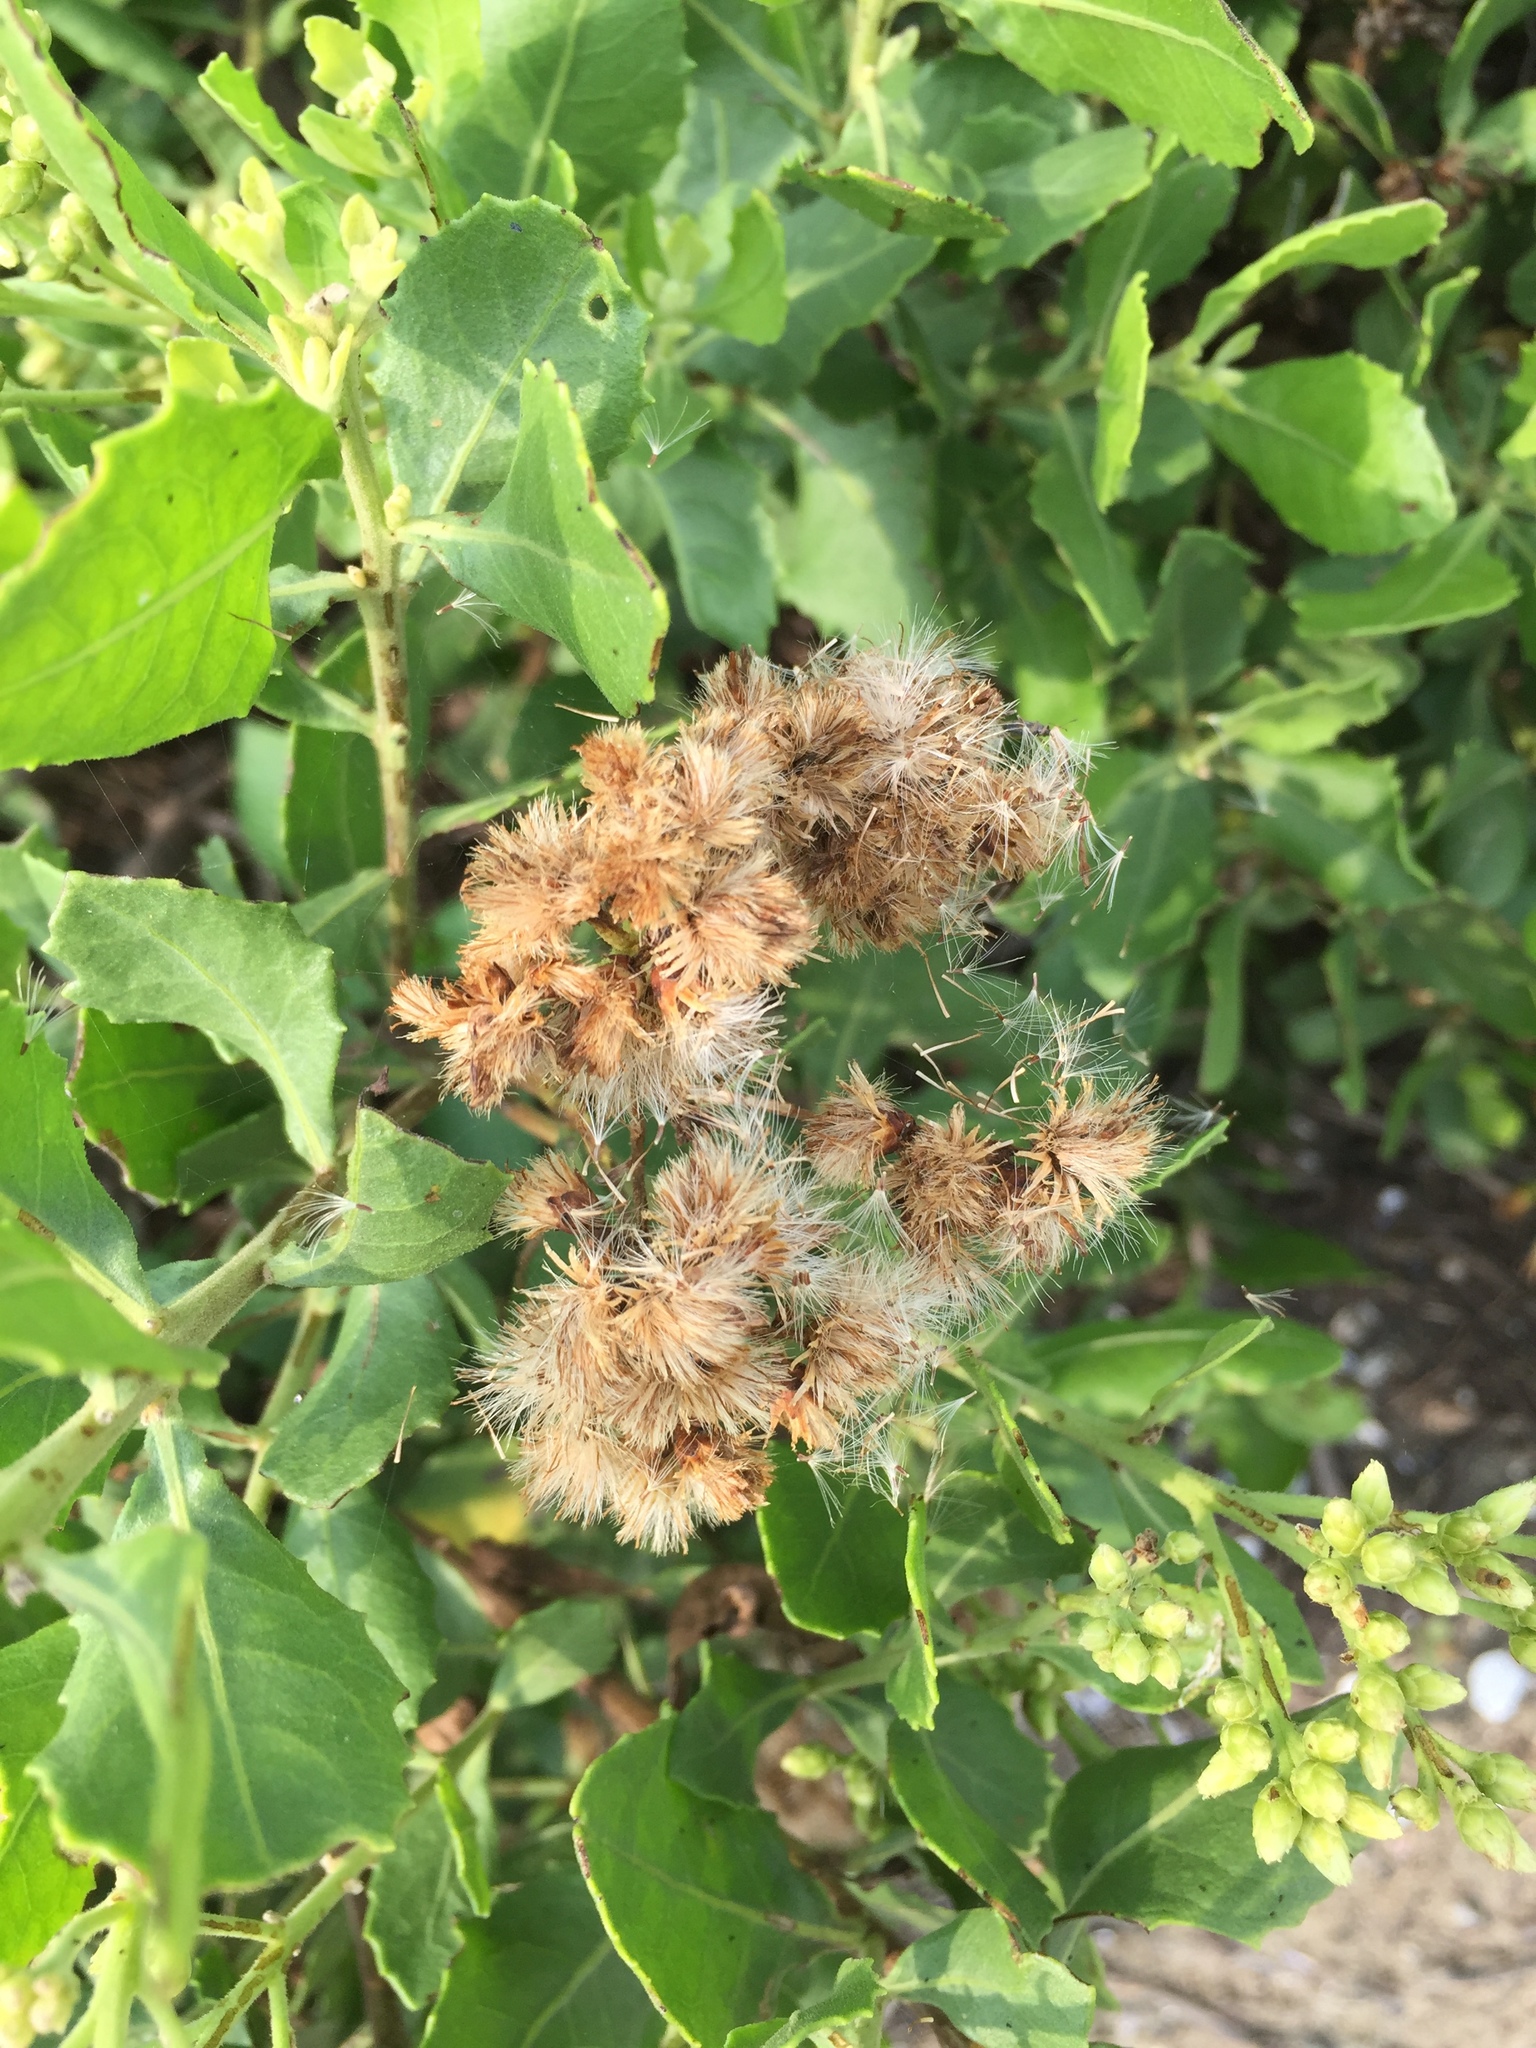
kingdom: Plantae
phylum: Tracheophyta
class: Magnoliopsida
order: Asterales
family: Asteraceae
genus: Pluchea
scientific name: Pluchea indica
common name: Indian fleabane
